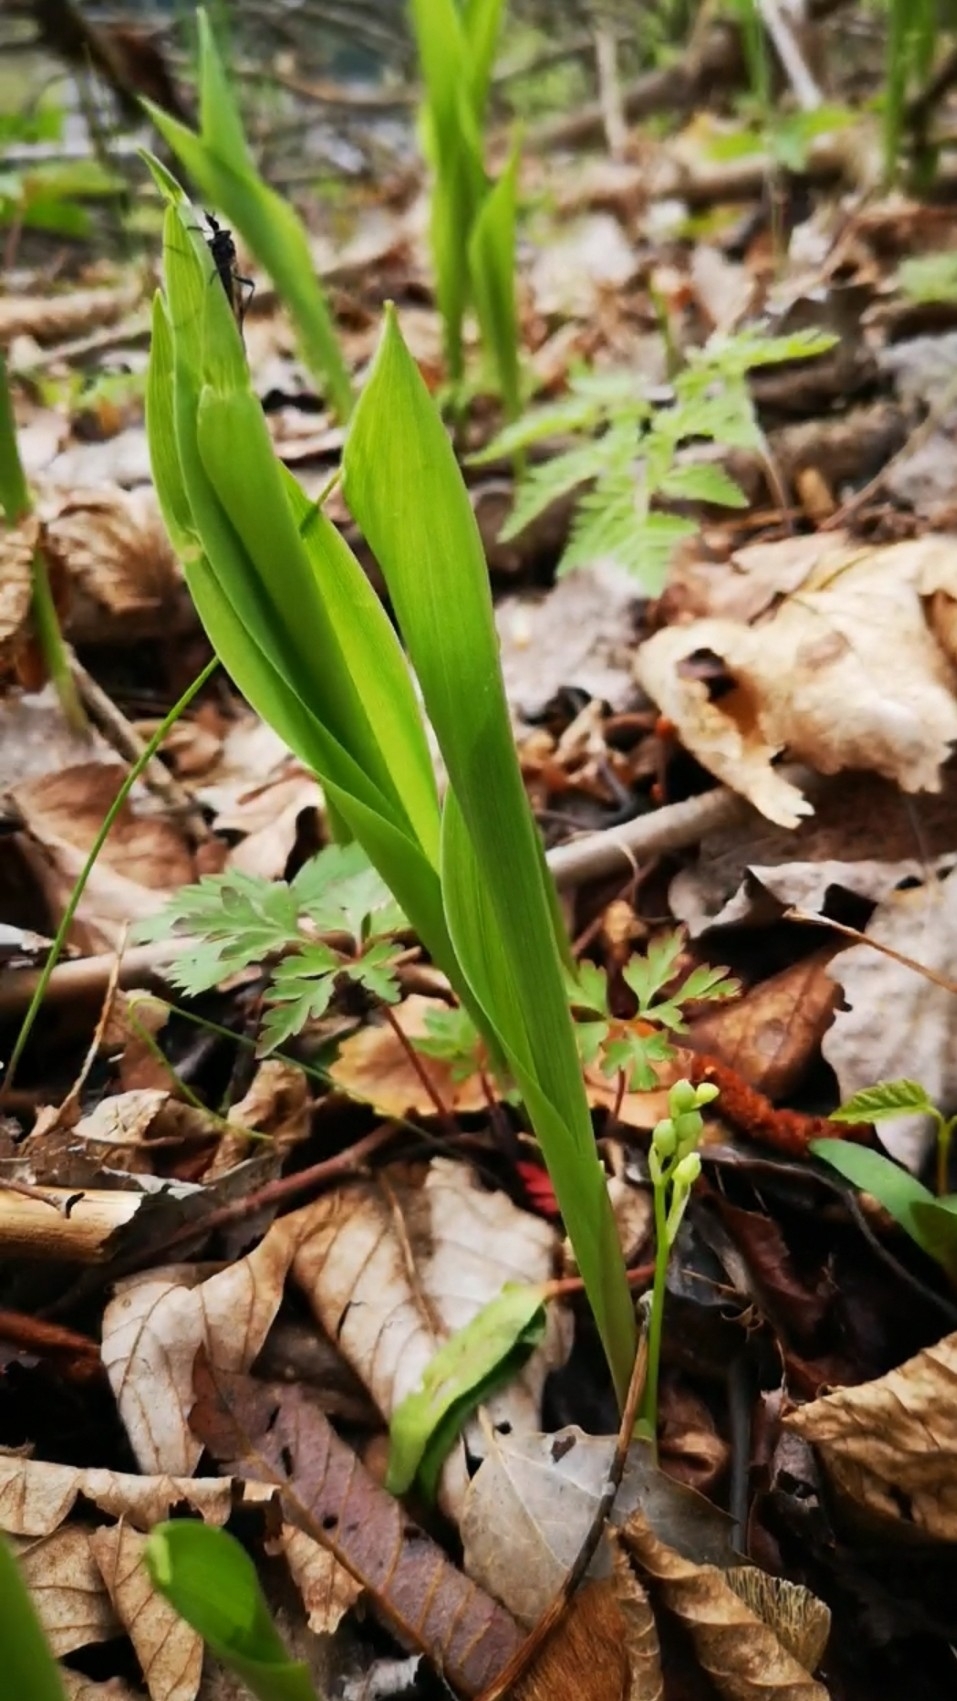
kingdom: Plantae
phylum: Tracheophyta
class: Liliopsida
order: Asparagales
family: Asparagaceae
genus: Convallaria
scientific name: Convallaria majalis
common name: Lily-of-the-valley
